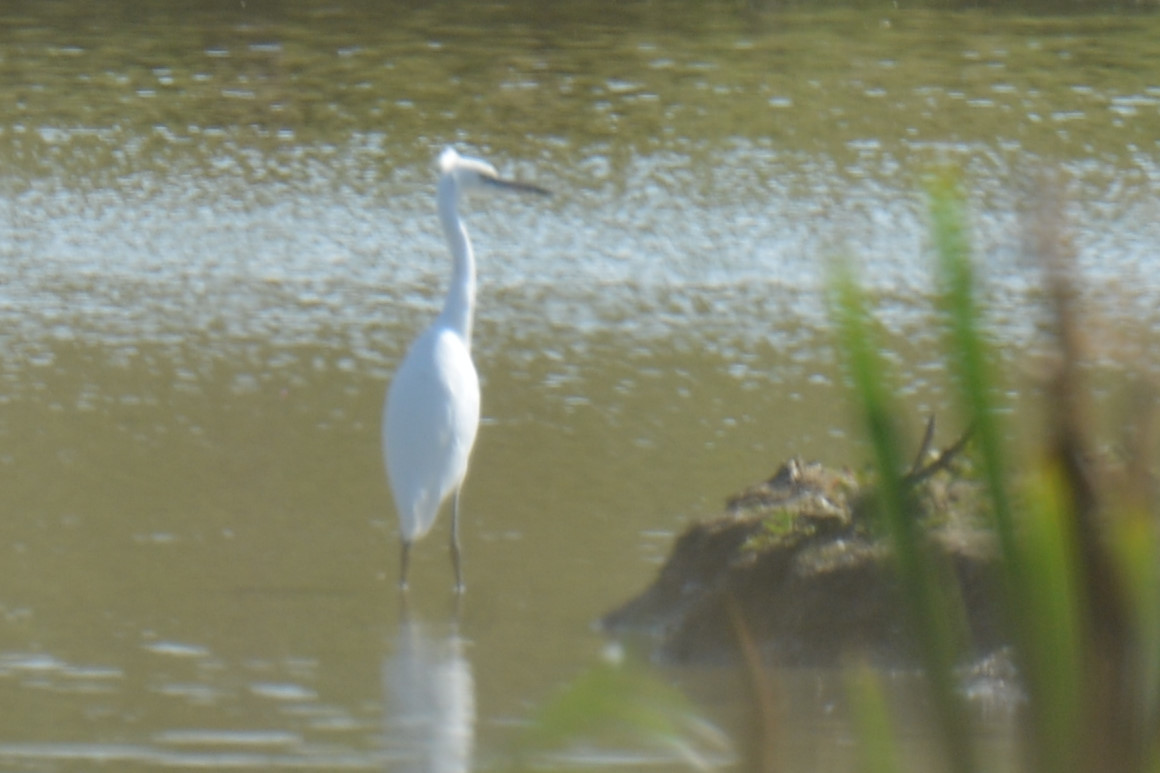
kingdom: Animalia
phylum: Chordata
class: Aves
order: Pelecaniformes
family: Ardeidae
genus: Egretta
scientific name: Egretta garzetta
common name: Little egret
